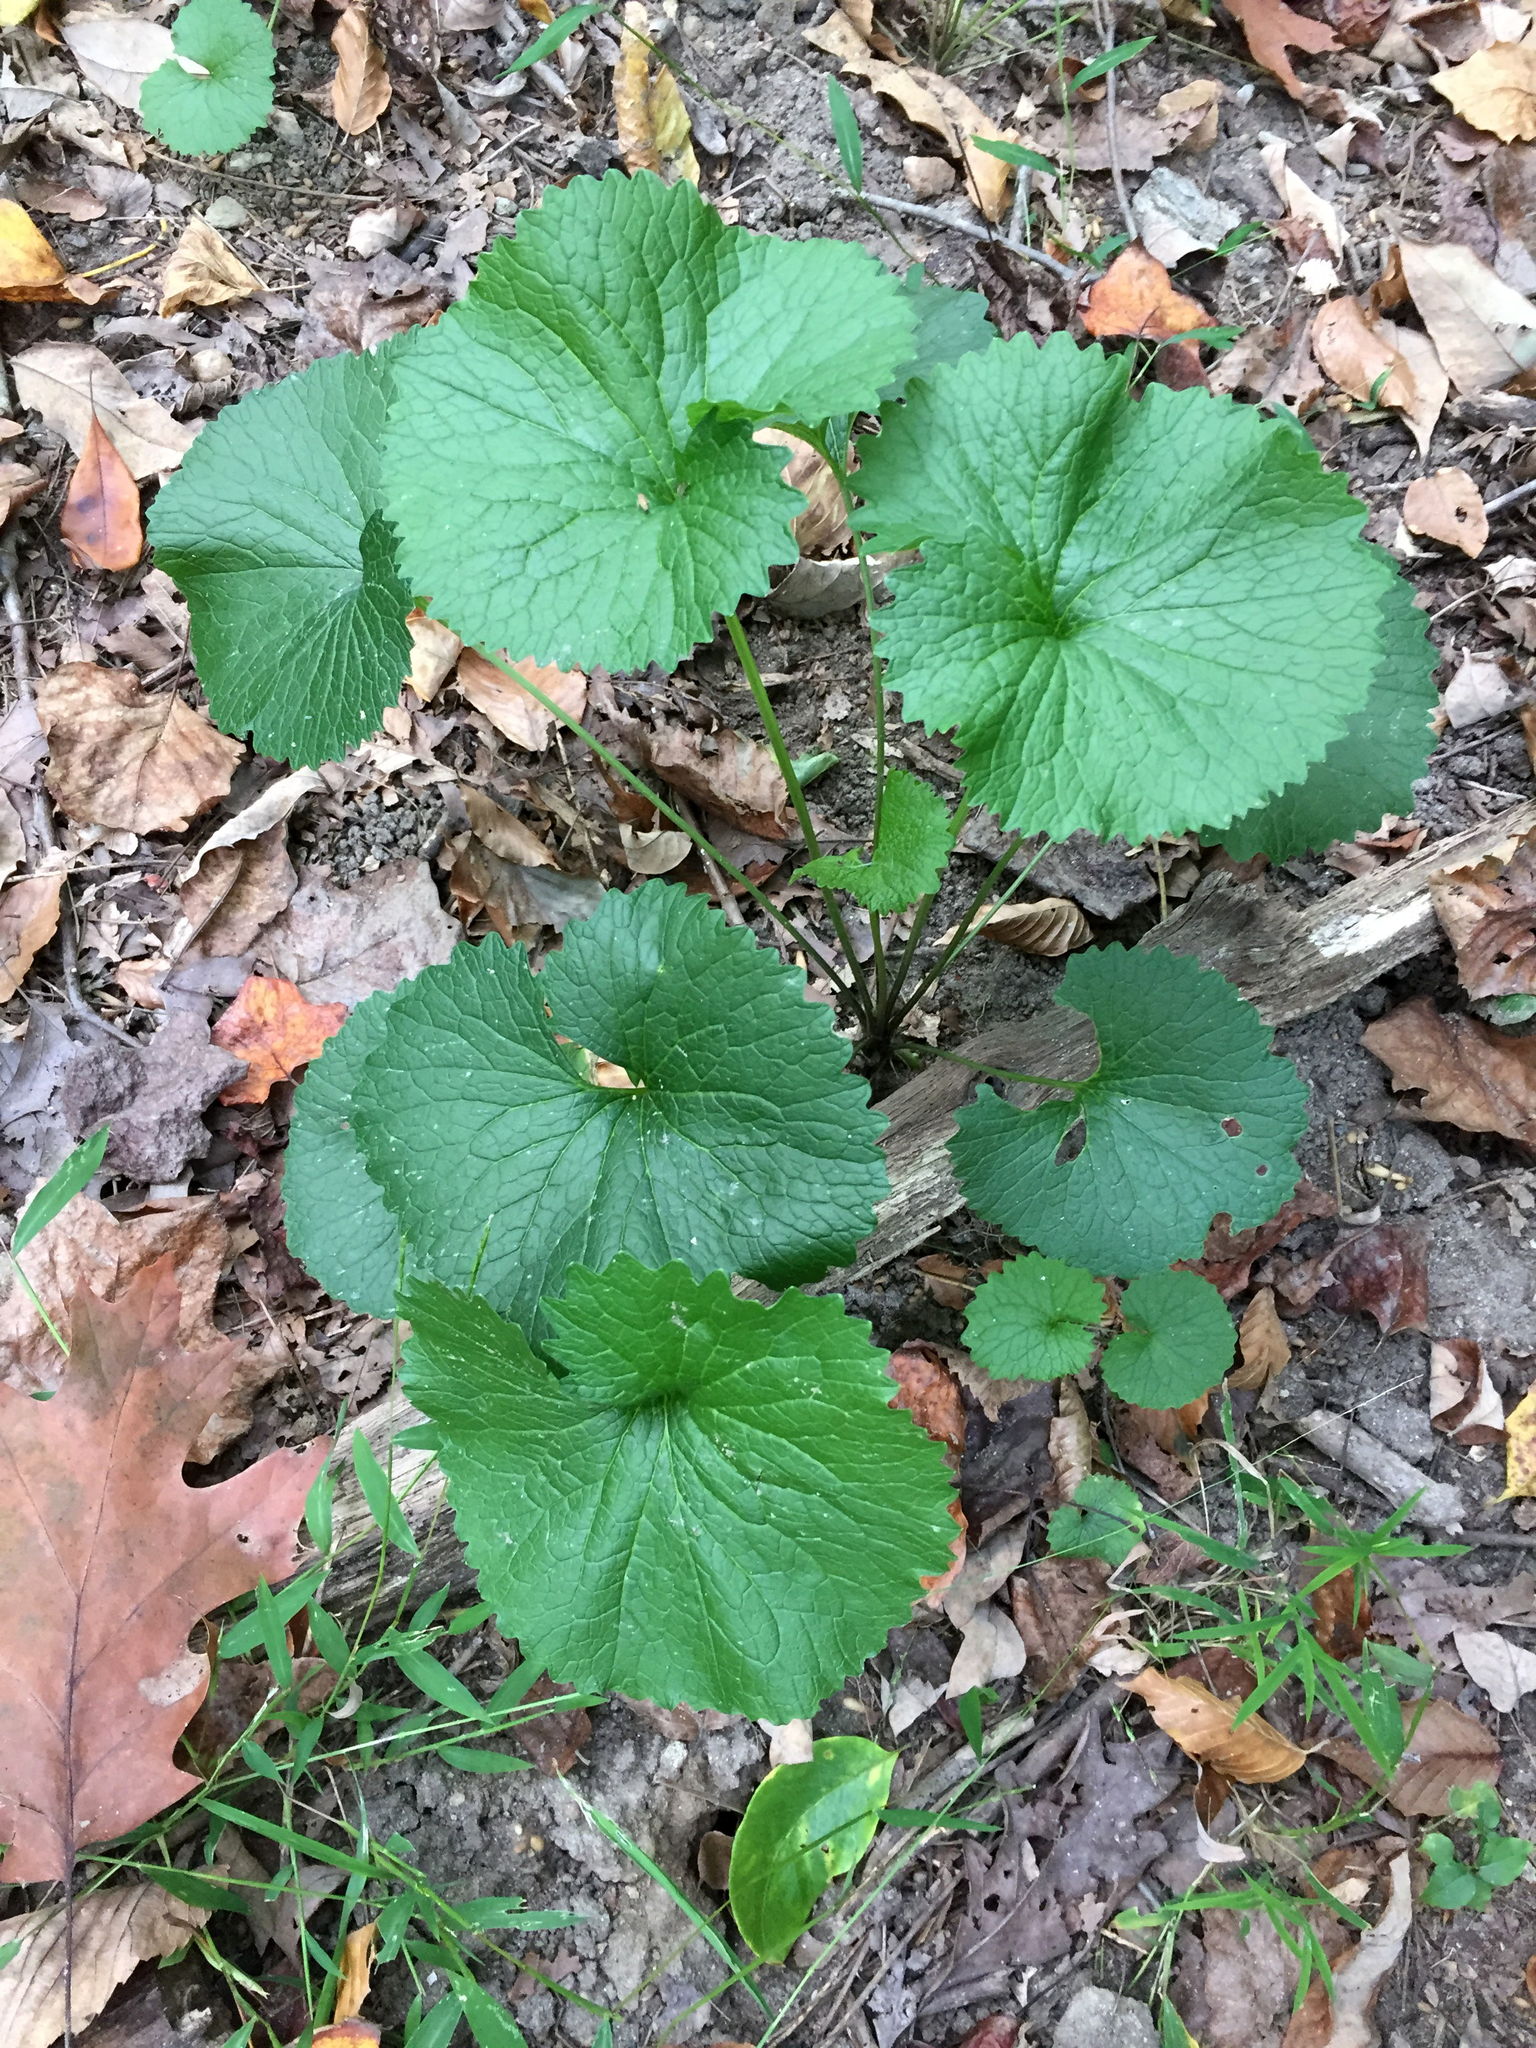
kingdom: Plantae
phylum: Tracheophyta
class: Magnoliopsida
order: Brassicales
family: Brassicaceae
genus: Alliaria
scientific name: Alliaria petiolata
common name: Garlic mustard
